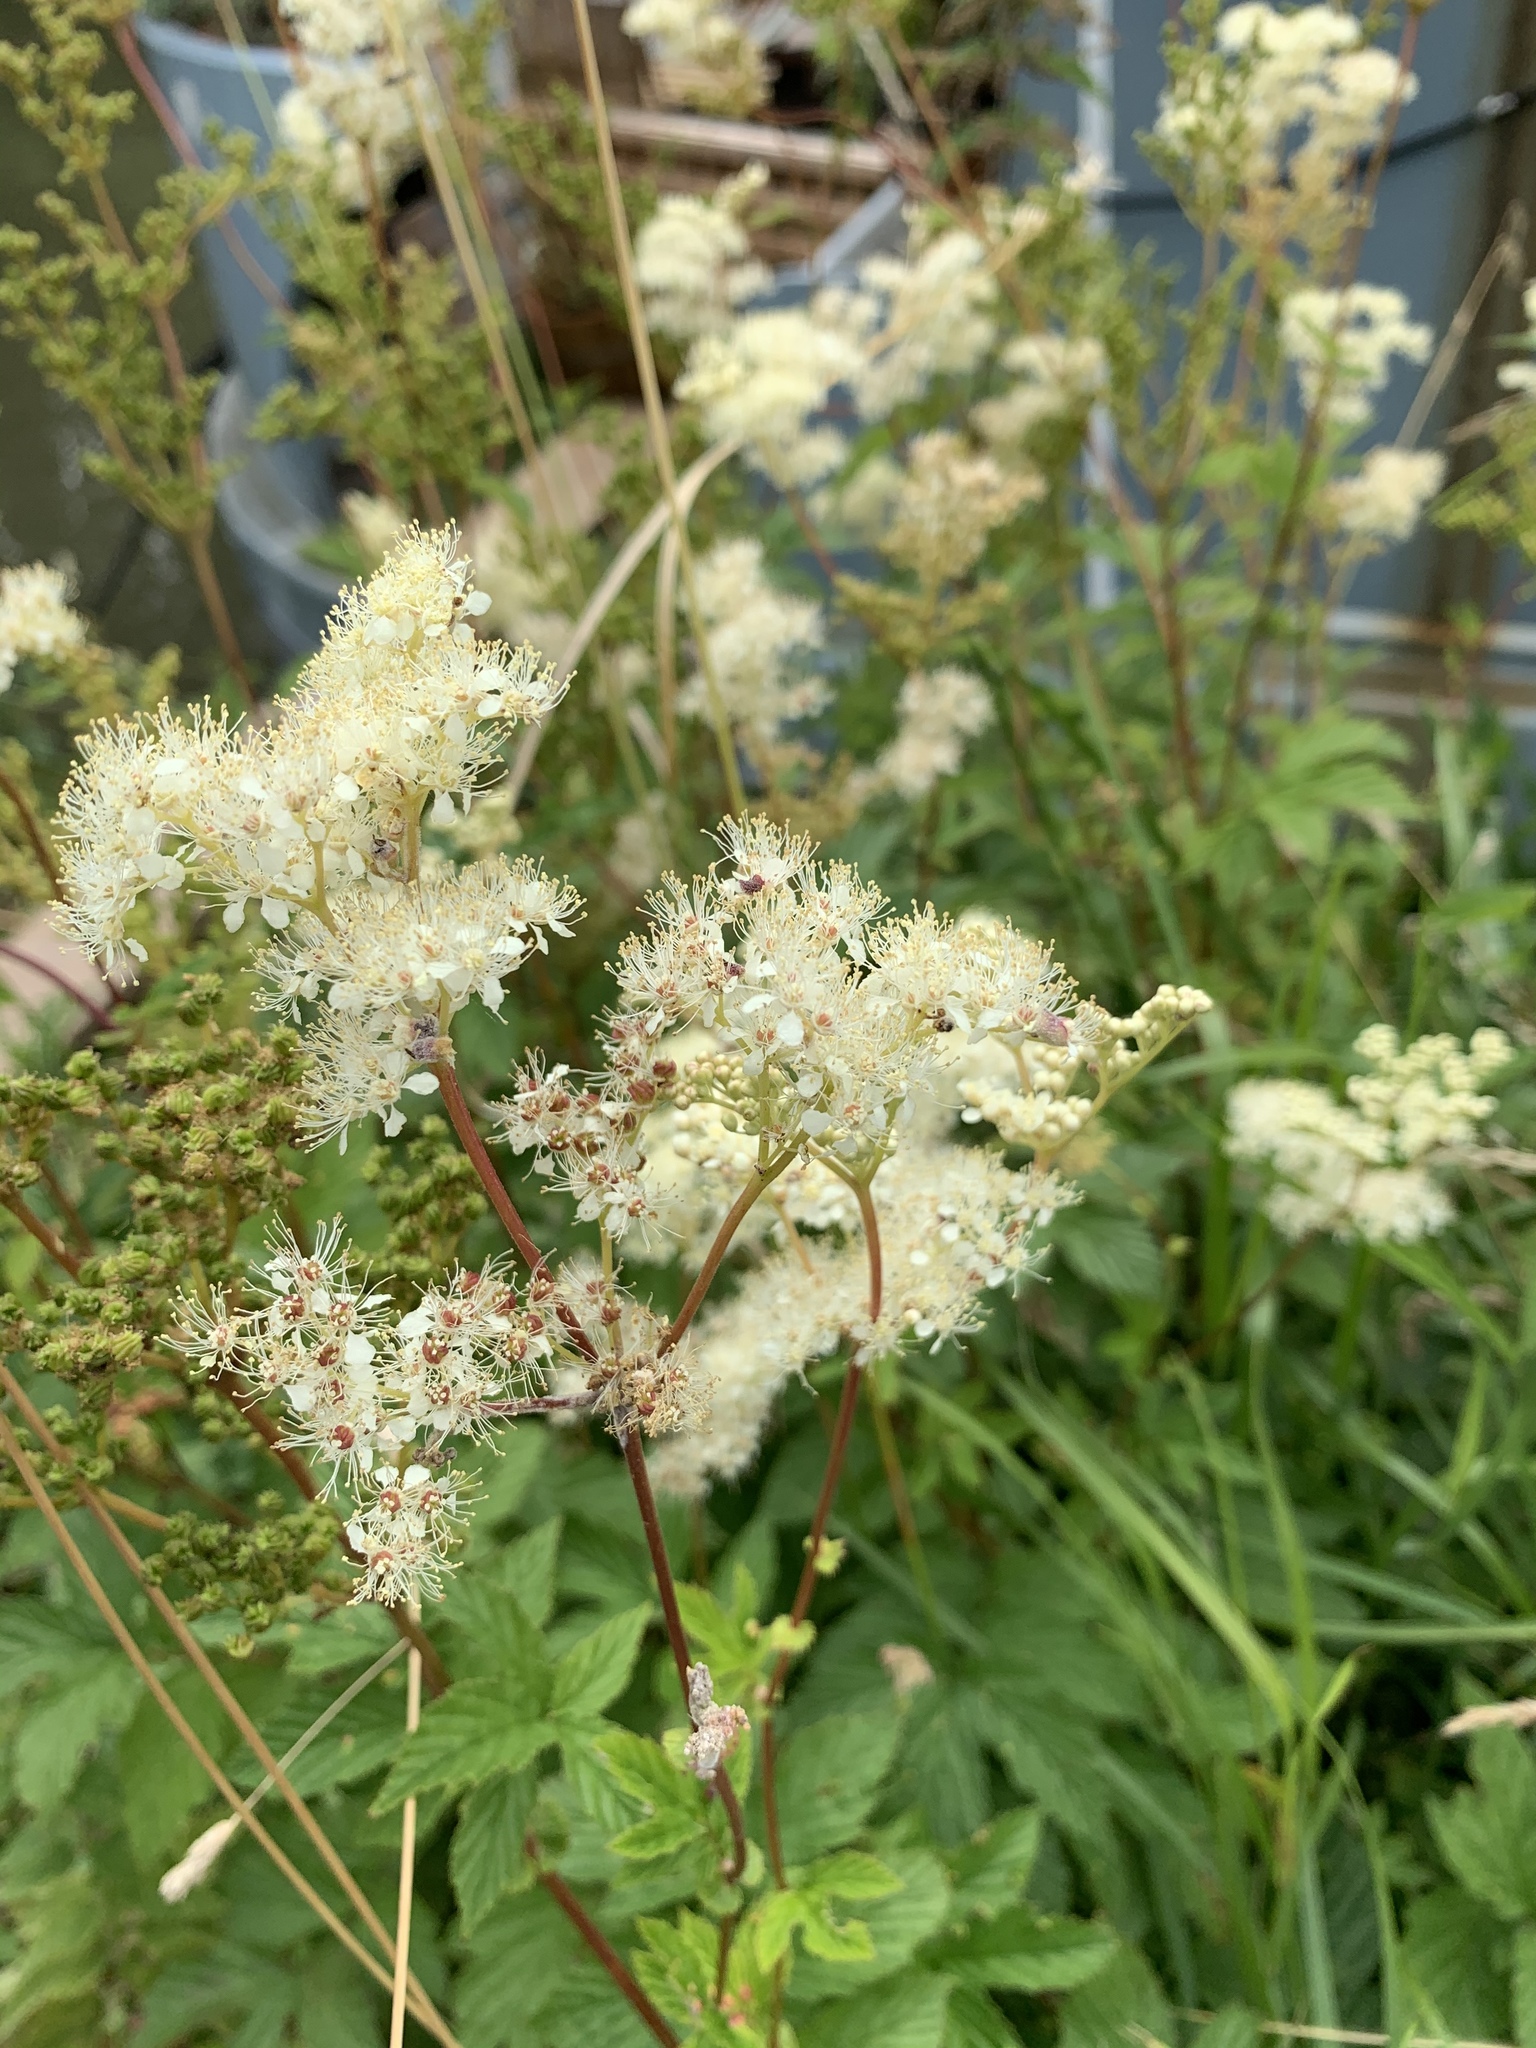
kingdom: Plantae
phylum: Tracheophyta
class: Magnoliopsida
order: Rosales
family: Rosaceae
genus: Filipendula
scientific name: Filipendula ulmaria
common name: Meadowsweet
